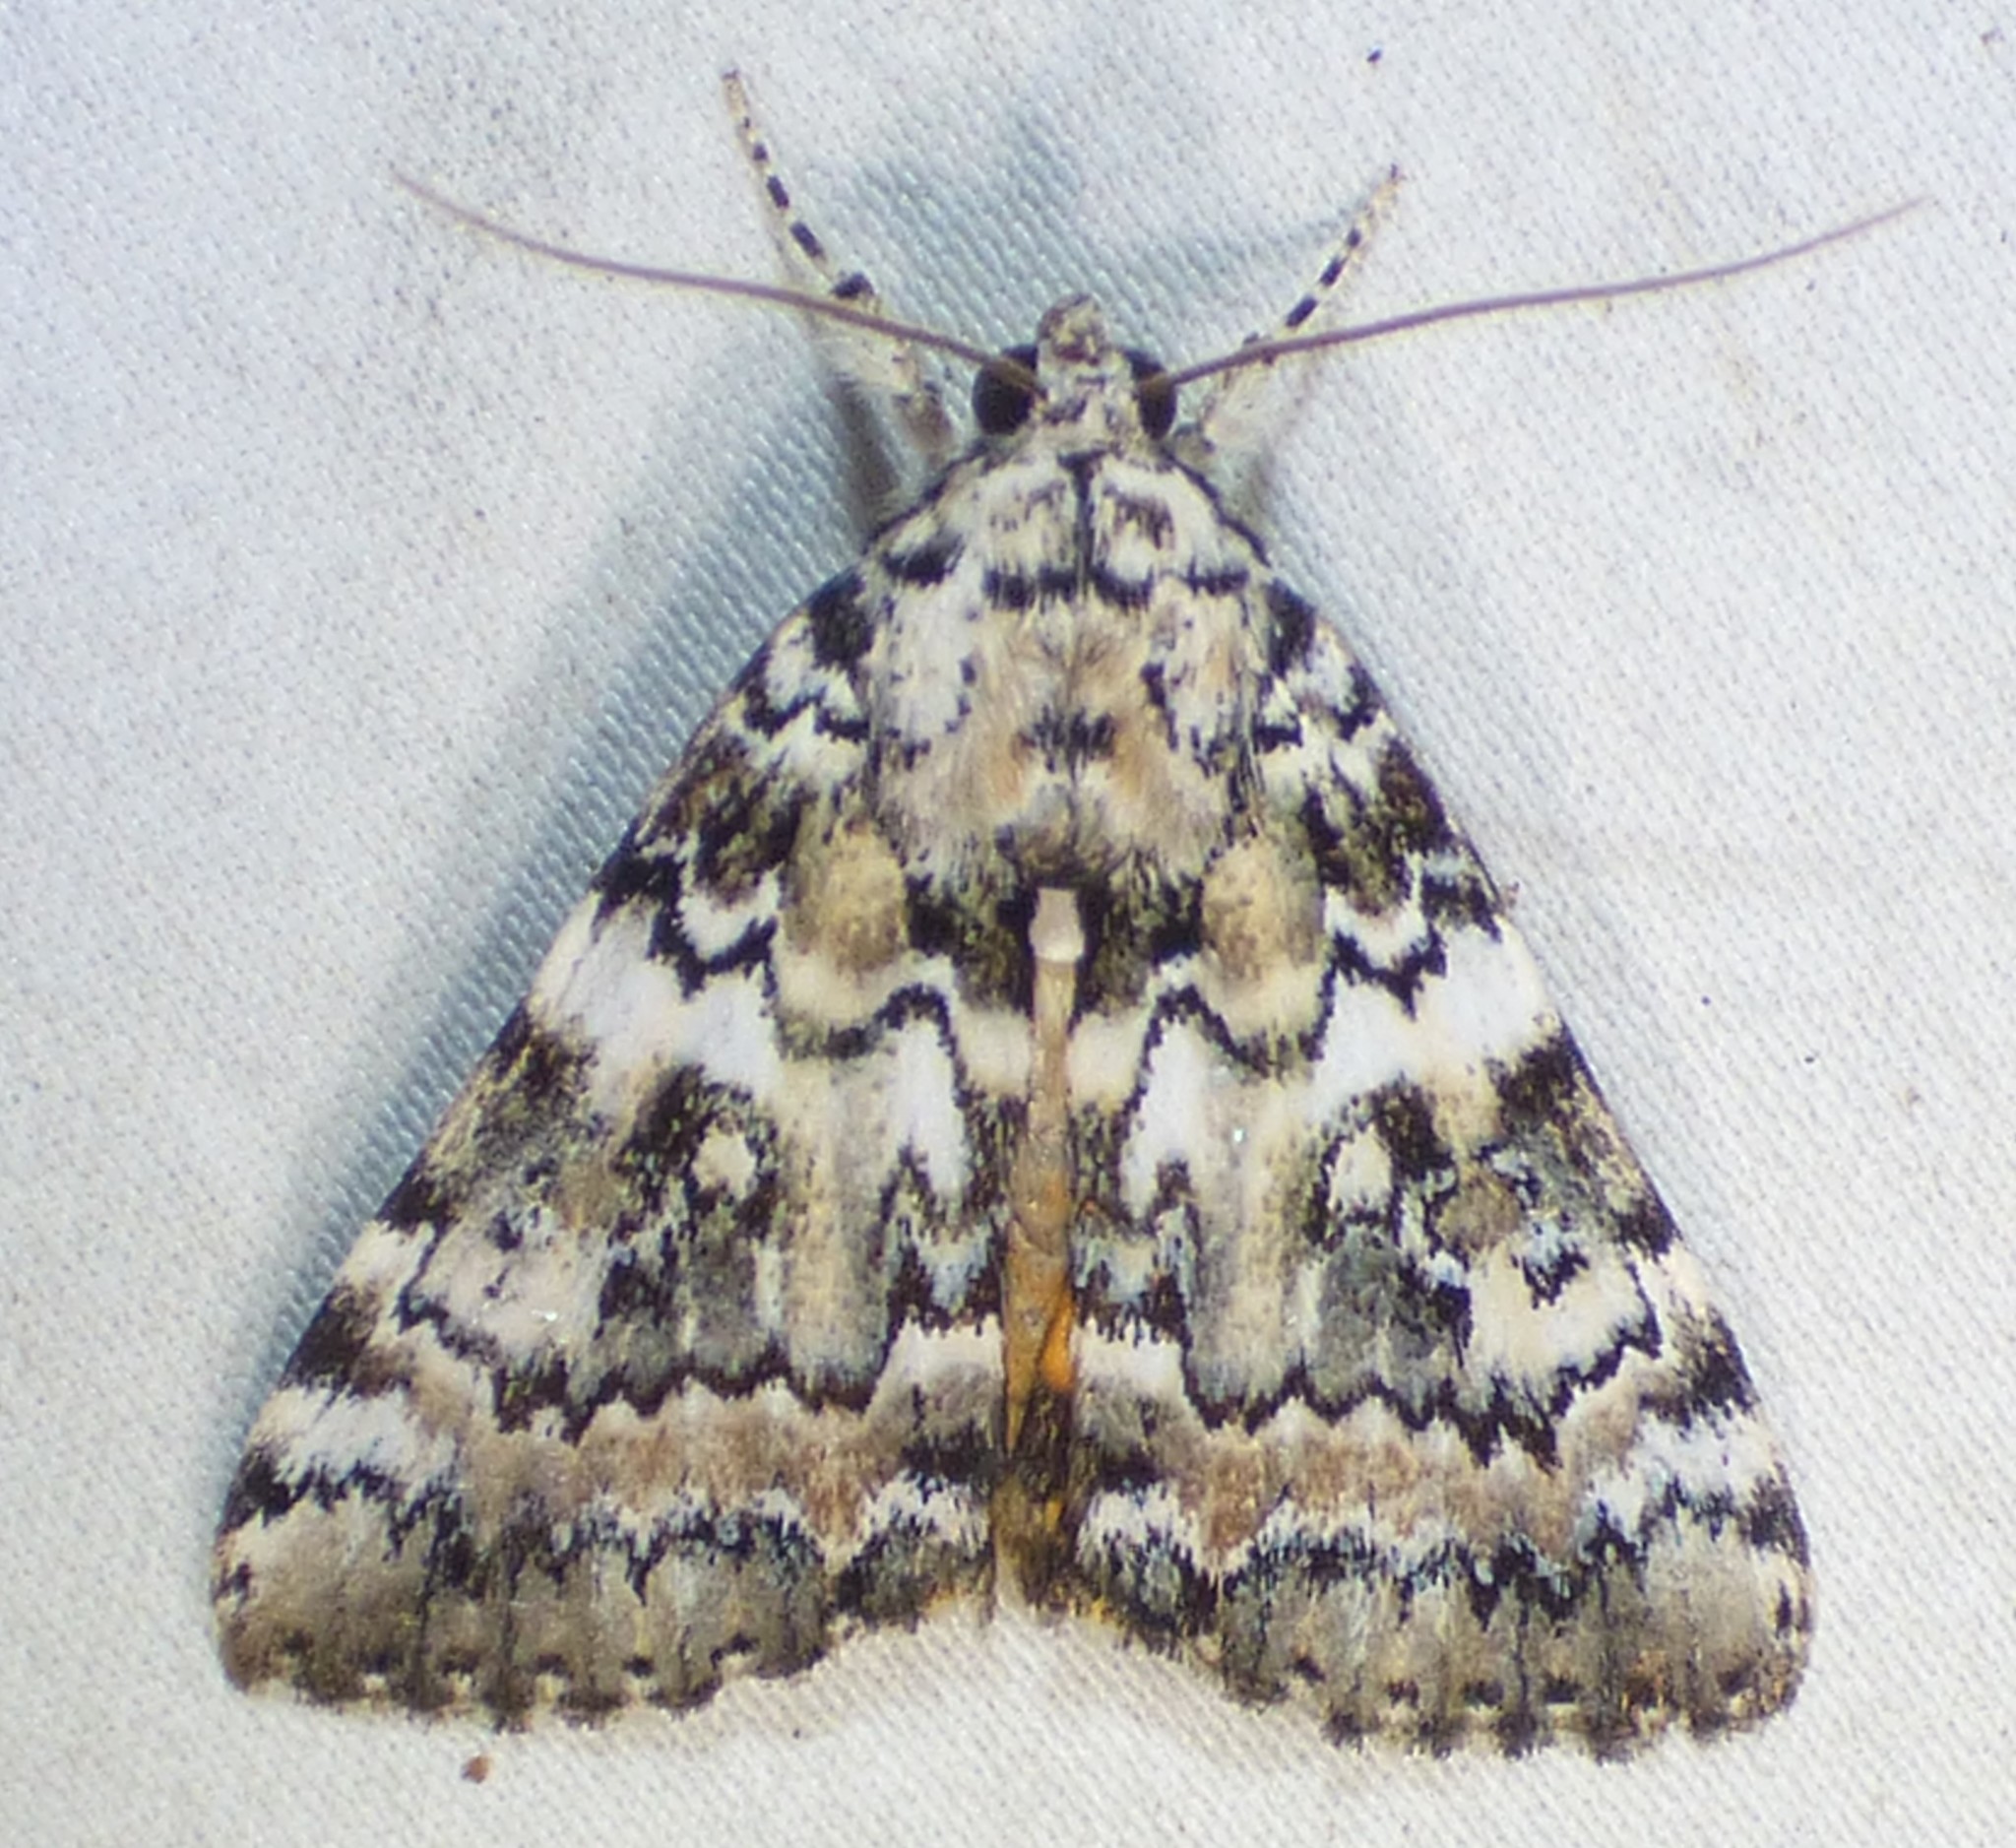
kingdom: Animalia
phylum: Arthropoda
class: Insecta
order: Lepidoptera
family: Erebidae
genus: Catocala
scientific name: Catocala connubialis
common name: Connubial underwing
